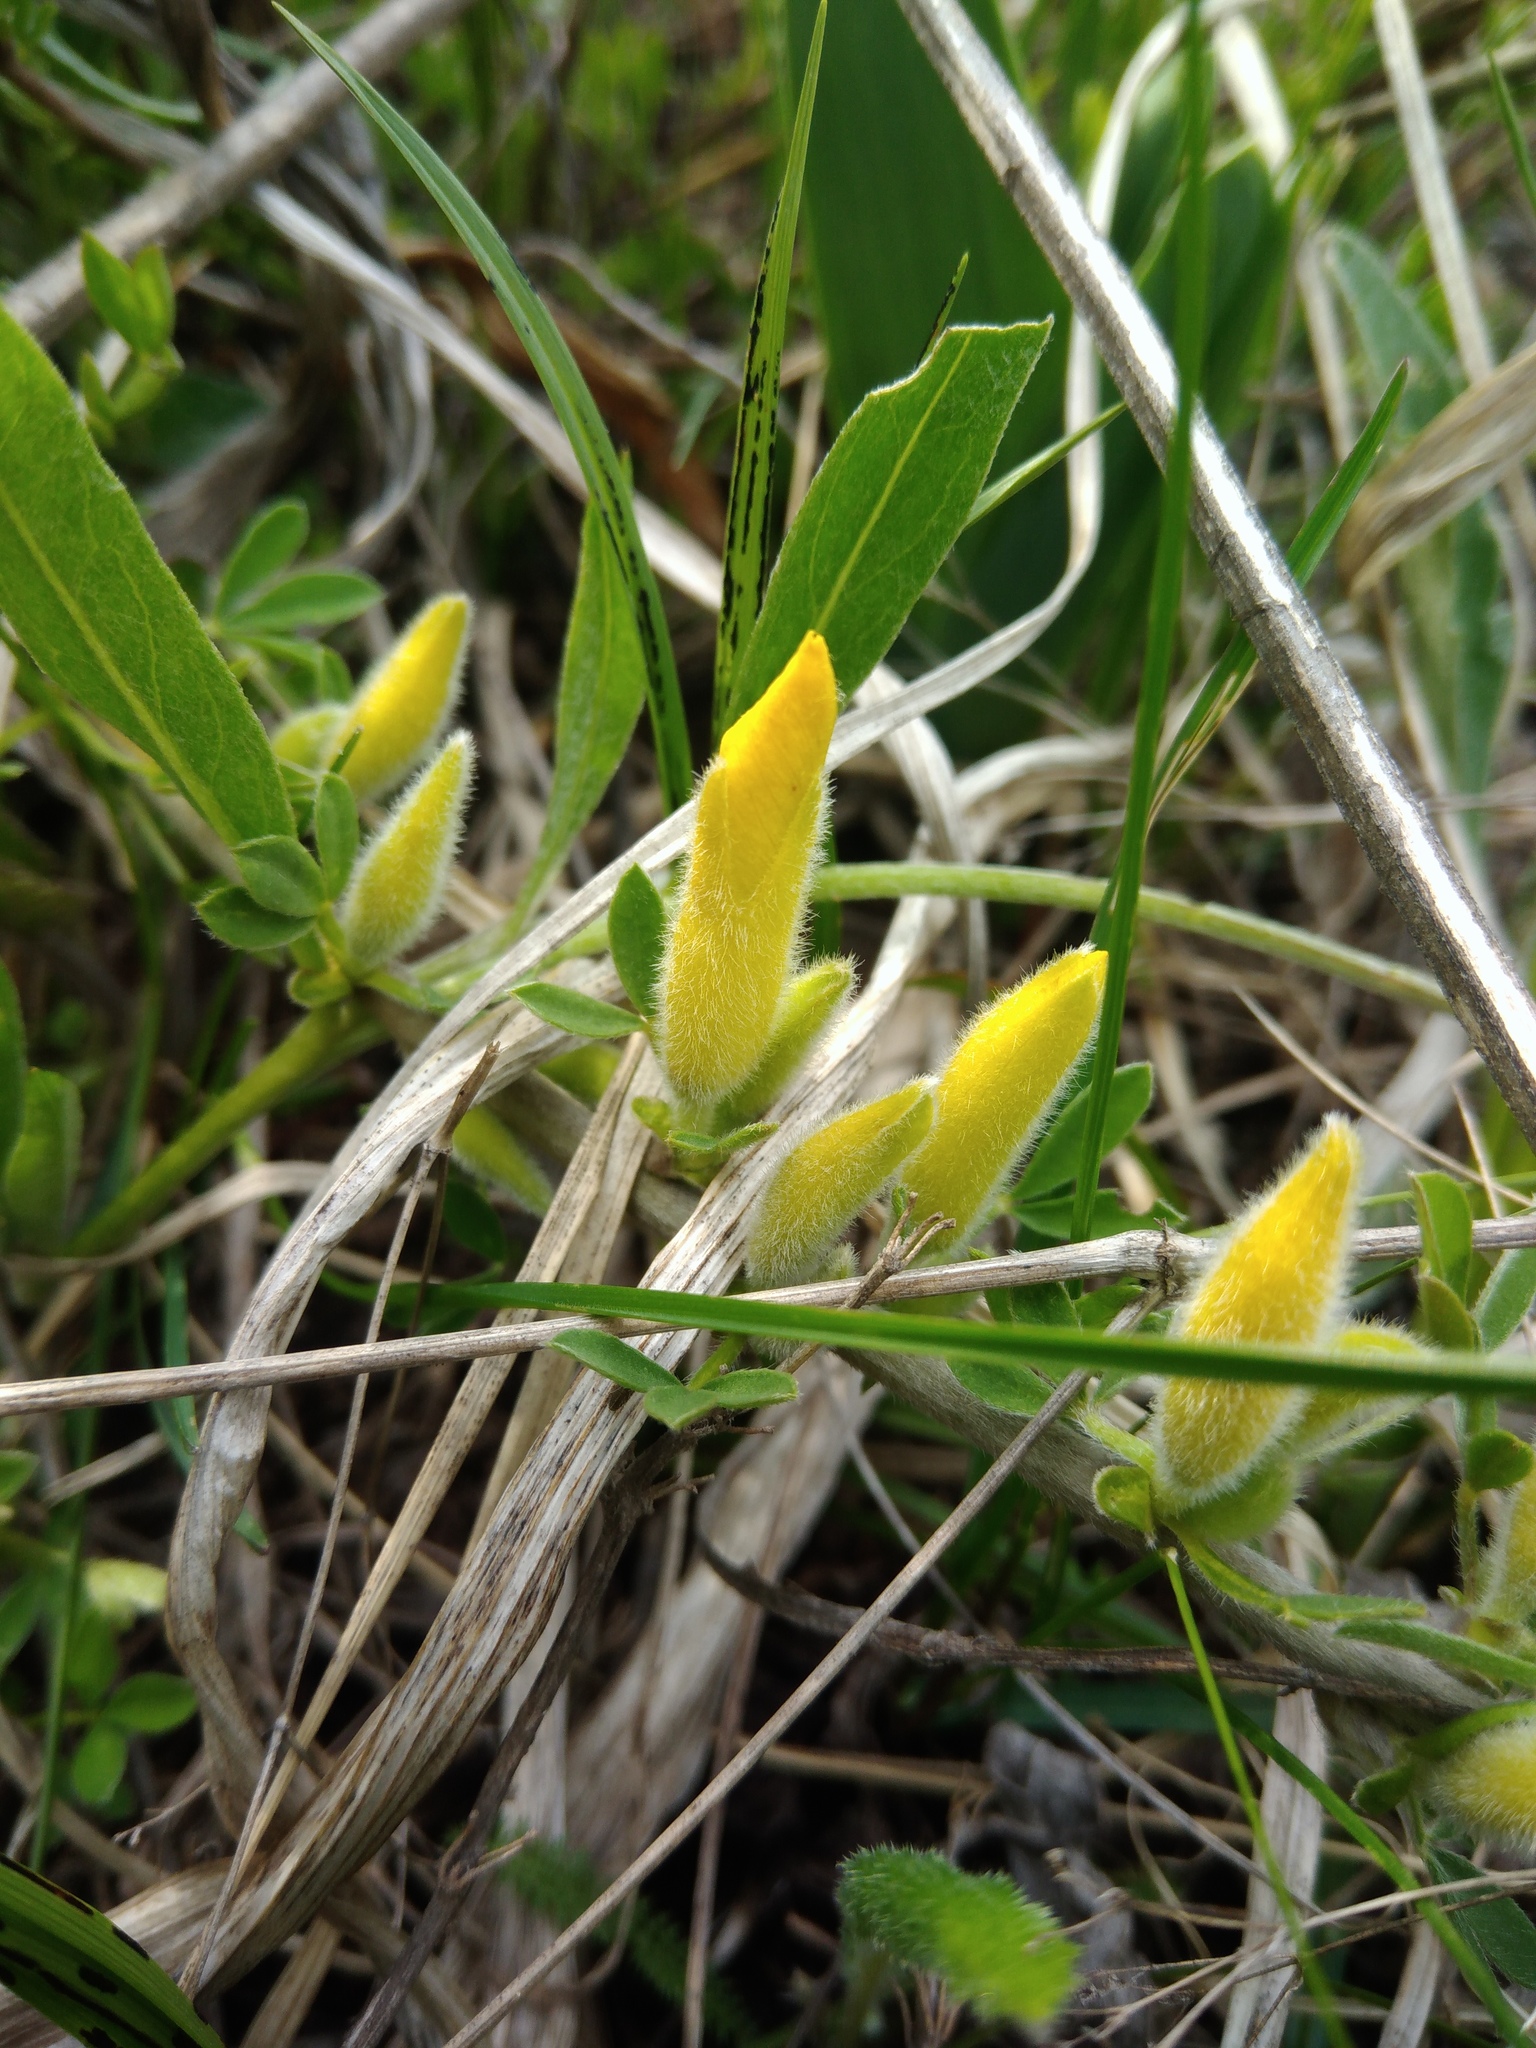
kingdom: Plantae
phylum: Tracheophyta
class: Magnoliopsida
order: Fabales
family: Fabaceae
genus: Chamaecytisus
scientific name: Chamaecytisus ruthenicus
